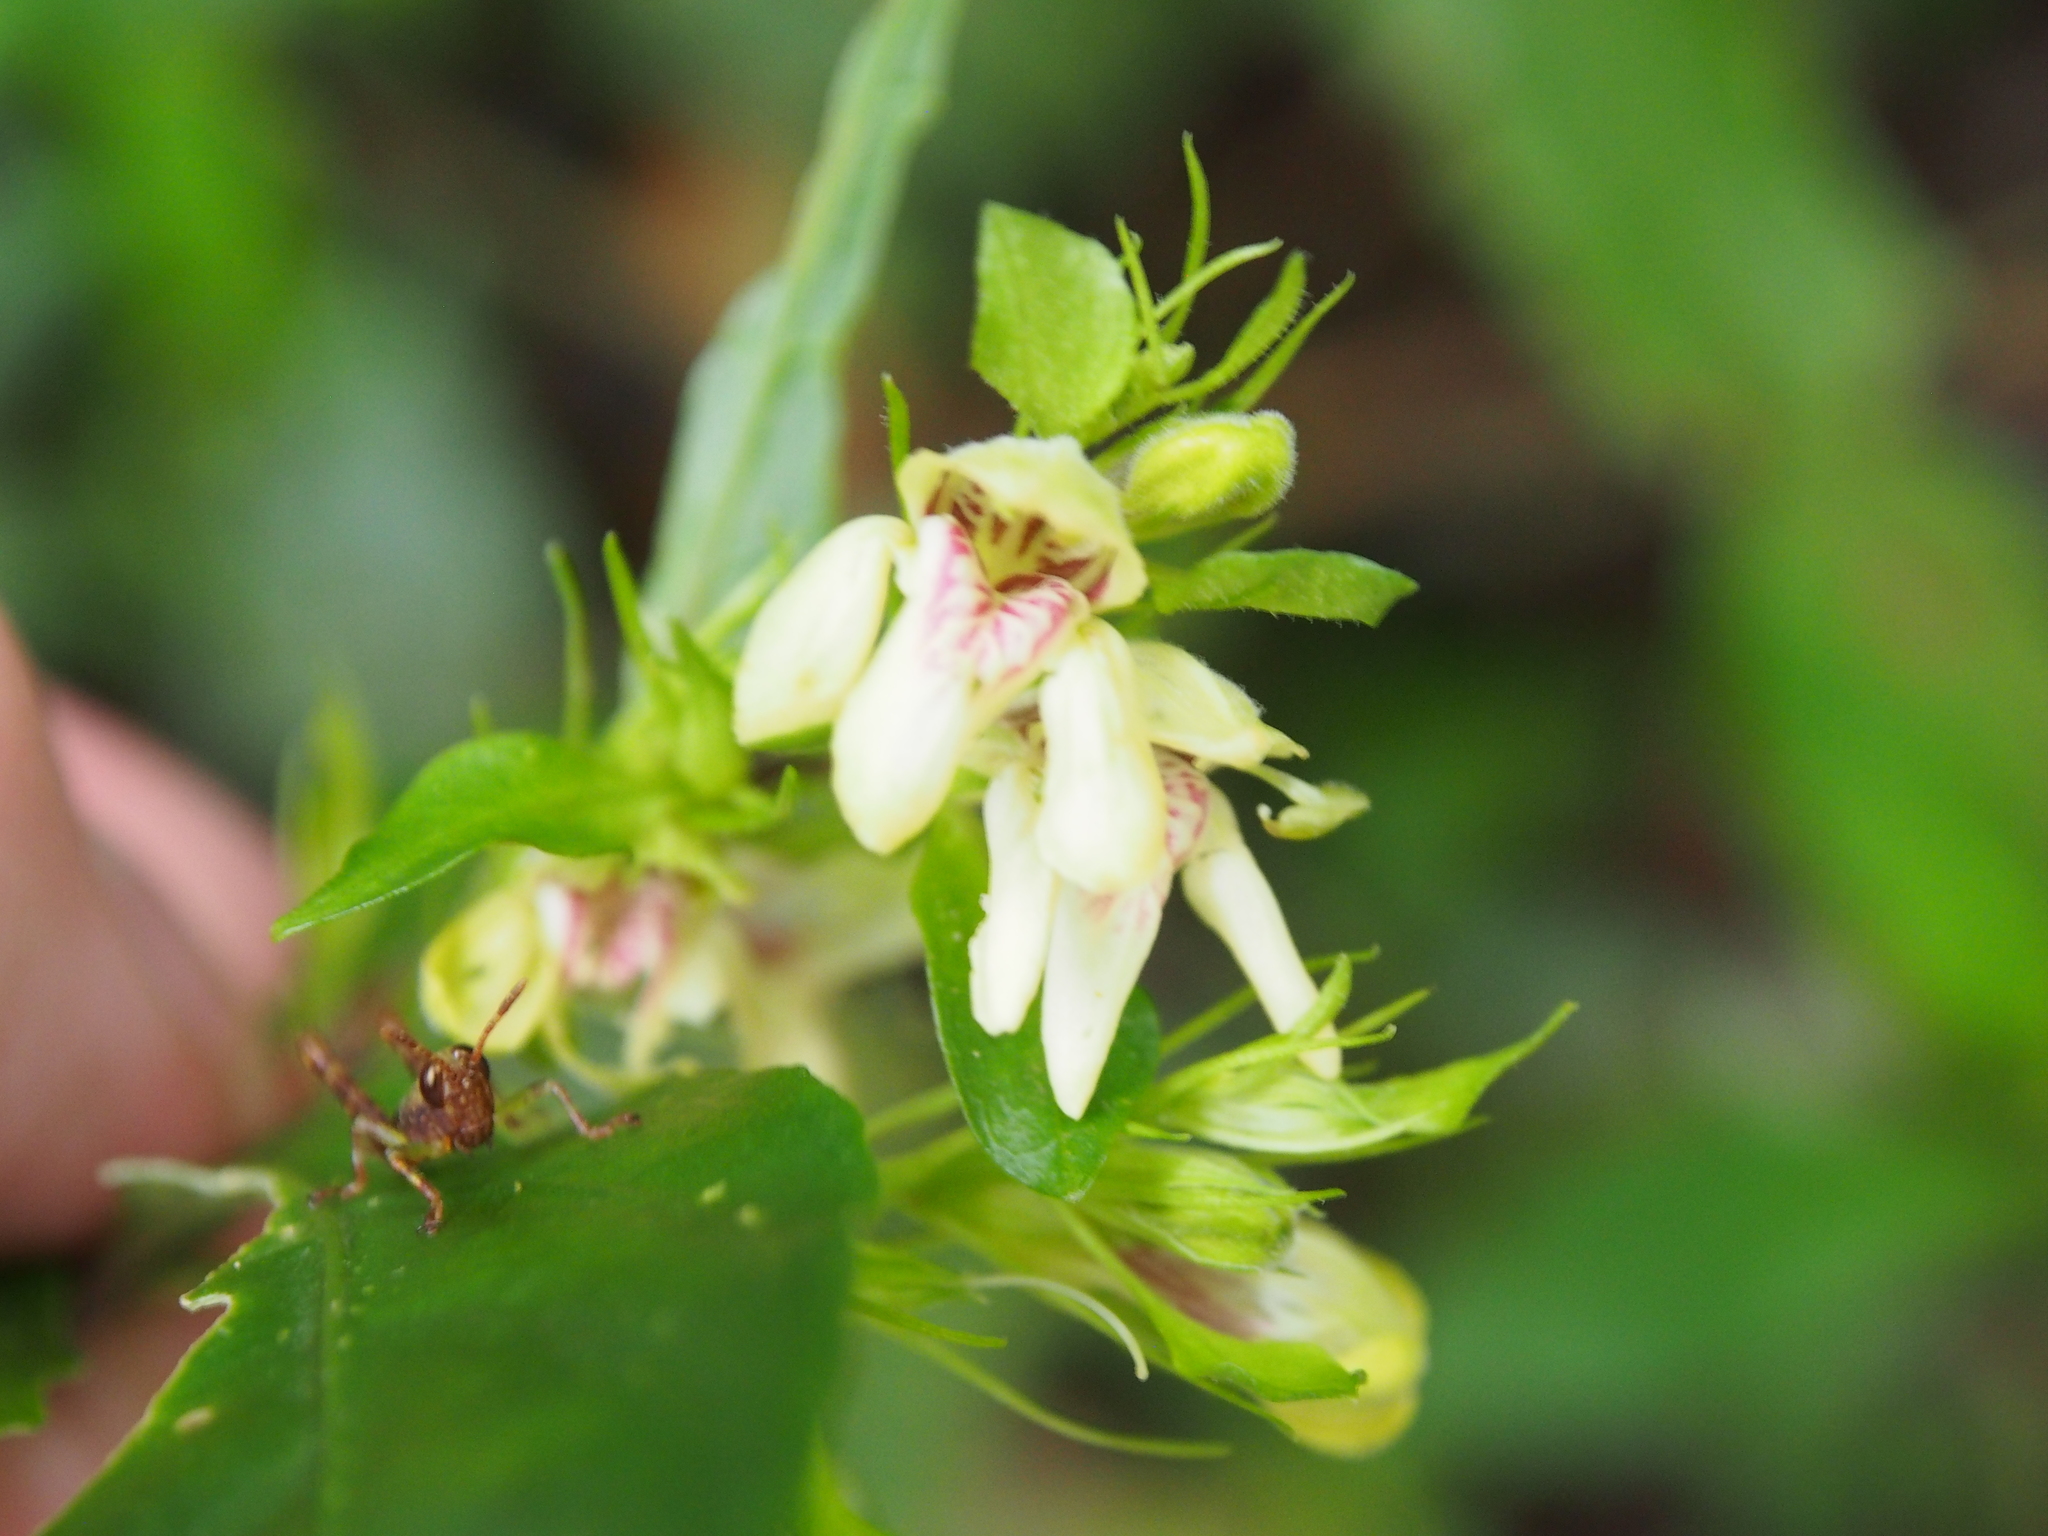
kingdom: Plantae
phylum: Tracheophyta
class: Magnoliopsida
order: Lamiales
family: Acanthaceae
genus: Justicia
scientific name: Justicia costaricana
